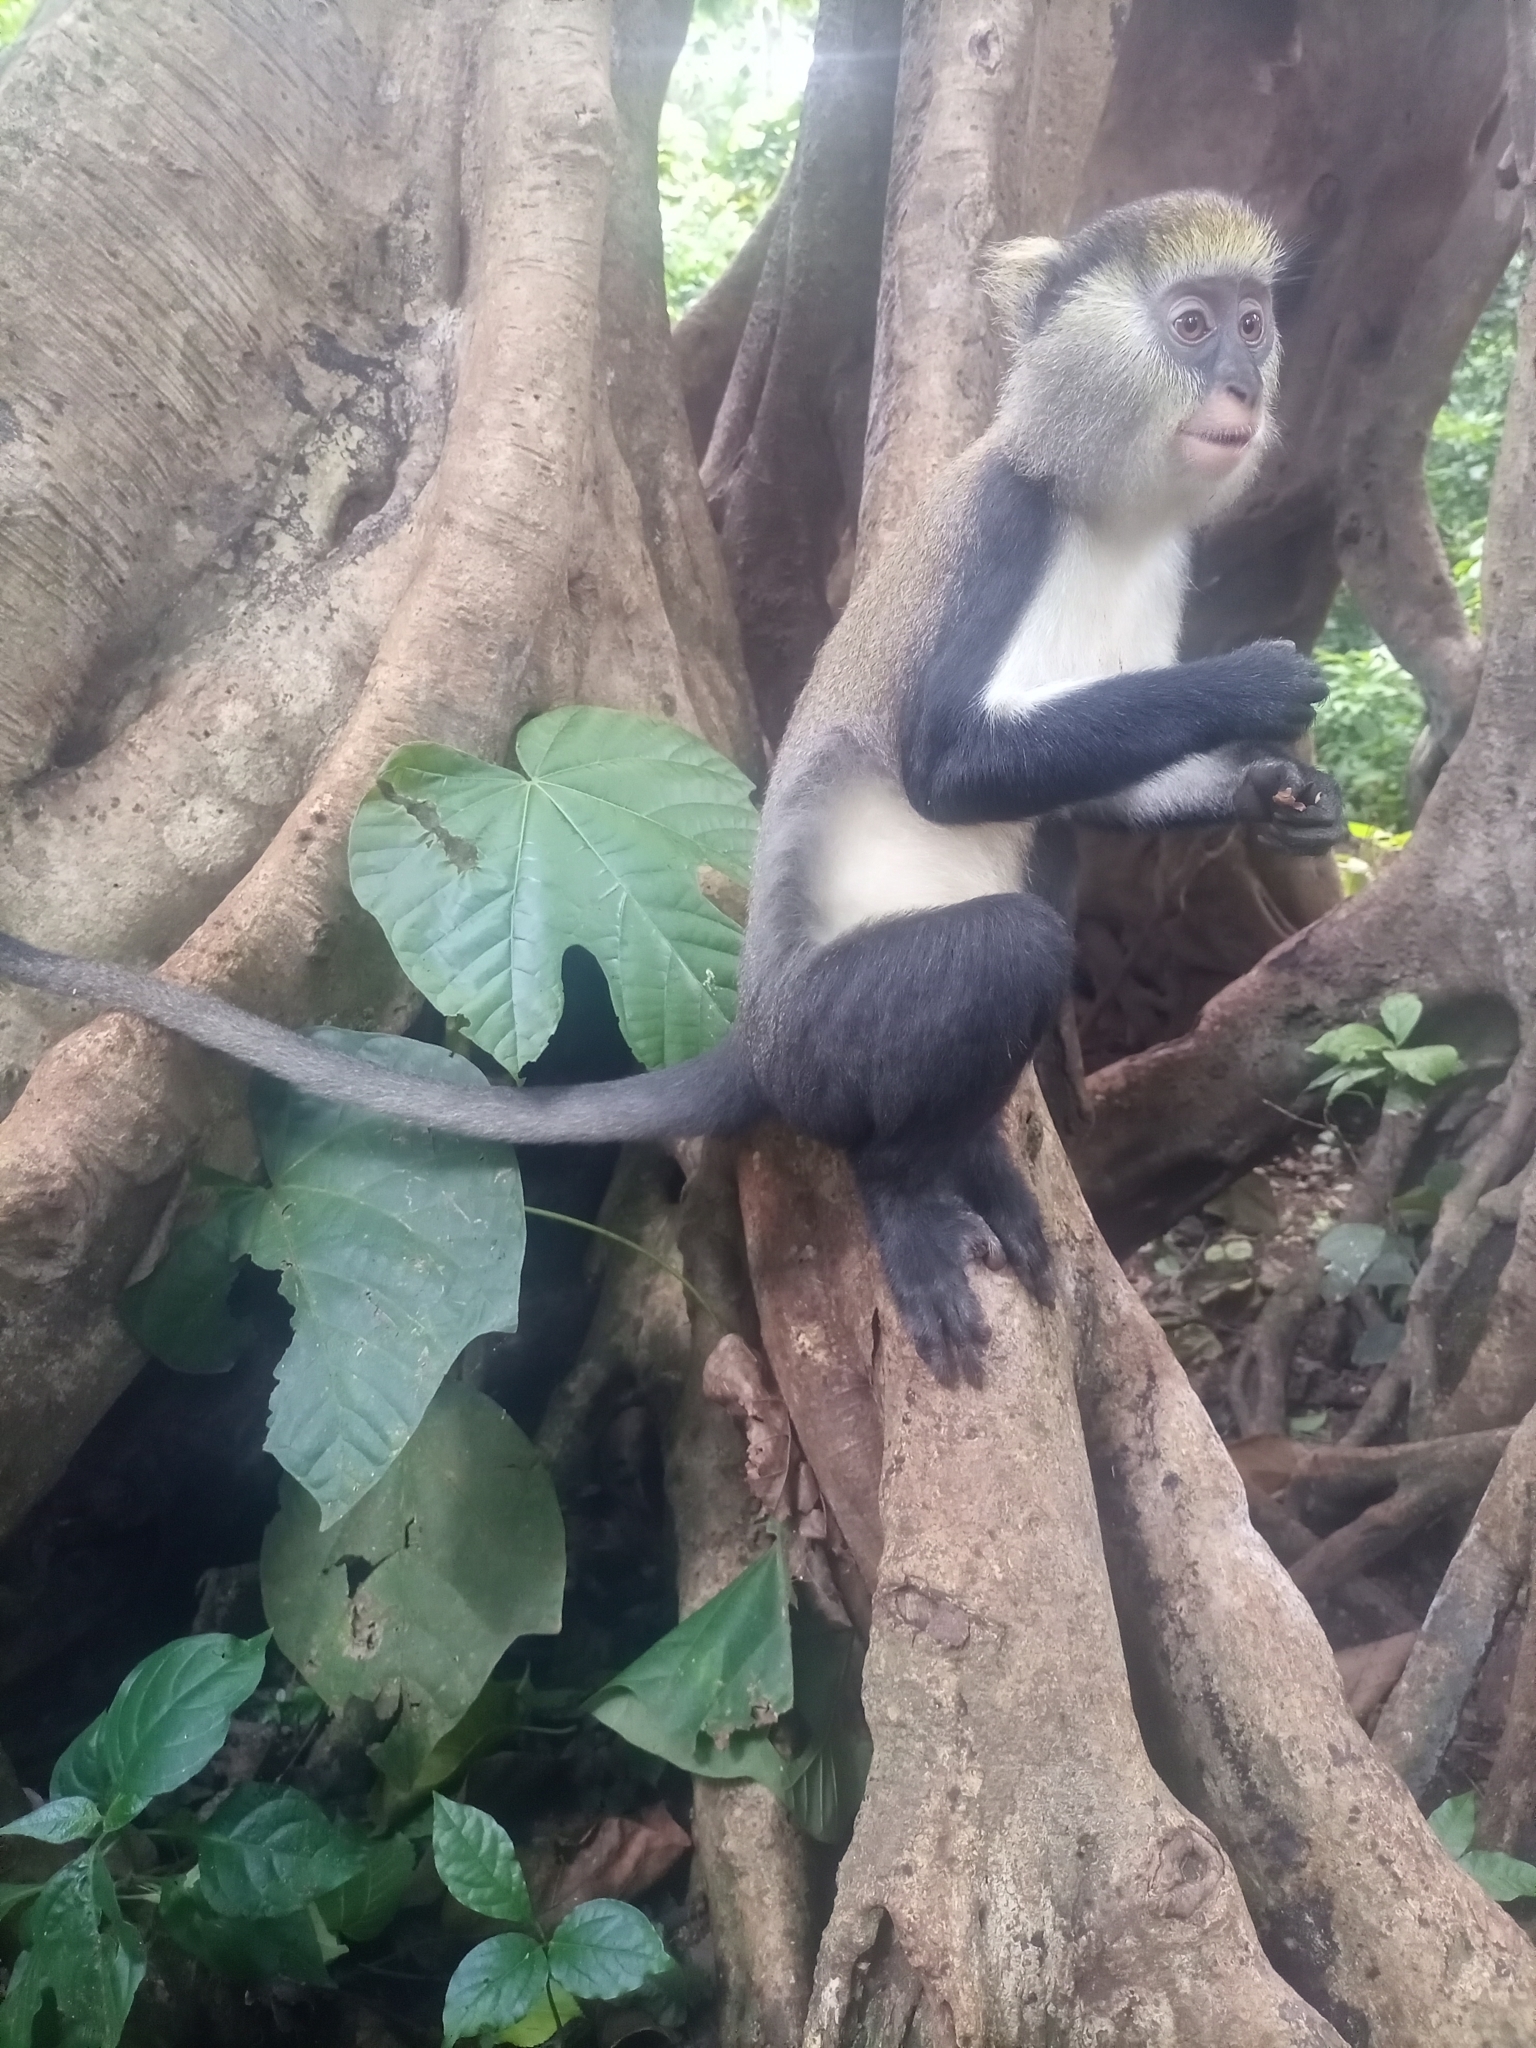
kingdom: Animalia
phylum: Chordata
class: Mammalia
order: Primates
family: Cercopithecidae
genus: Cercopithecus
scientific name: Cercopithecus lowei
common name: Lowe's monkey
